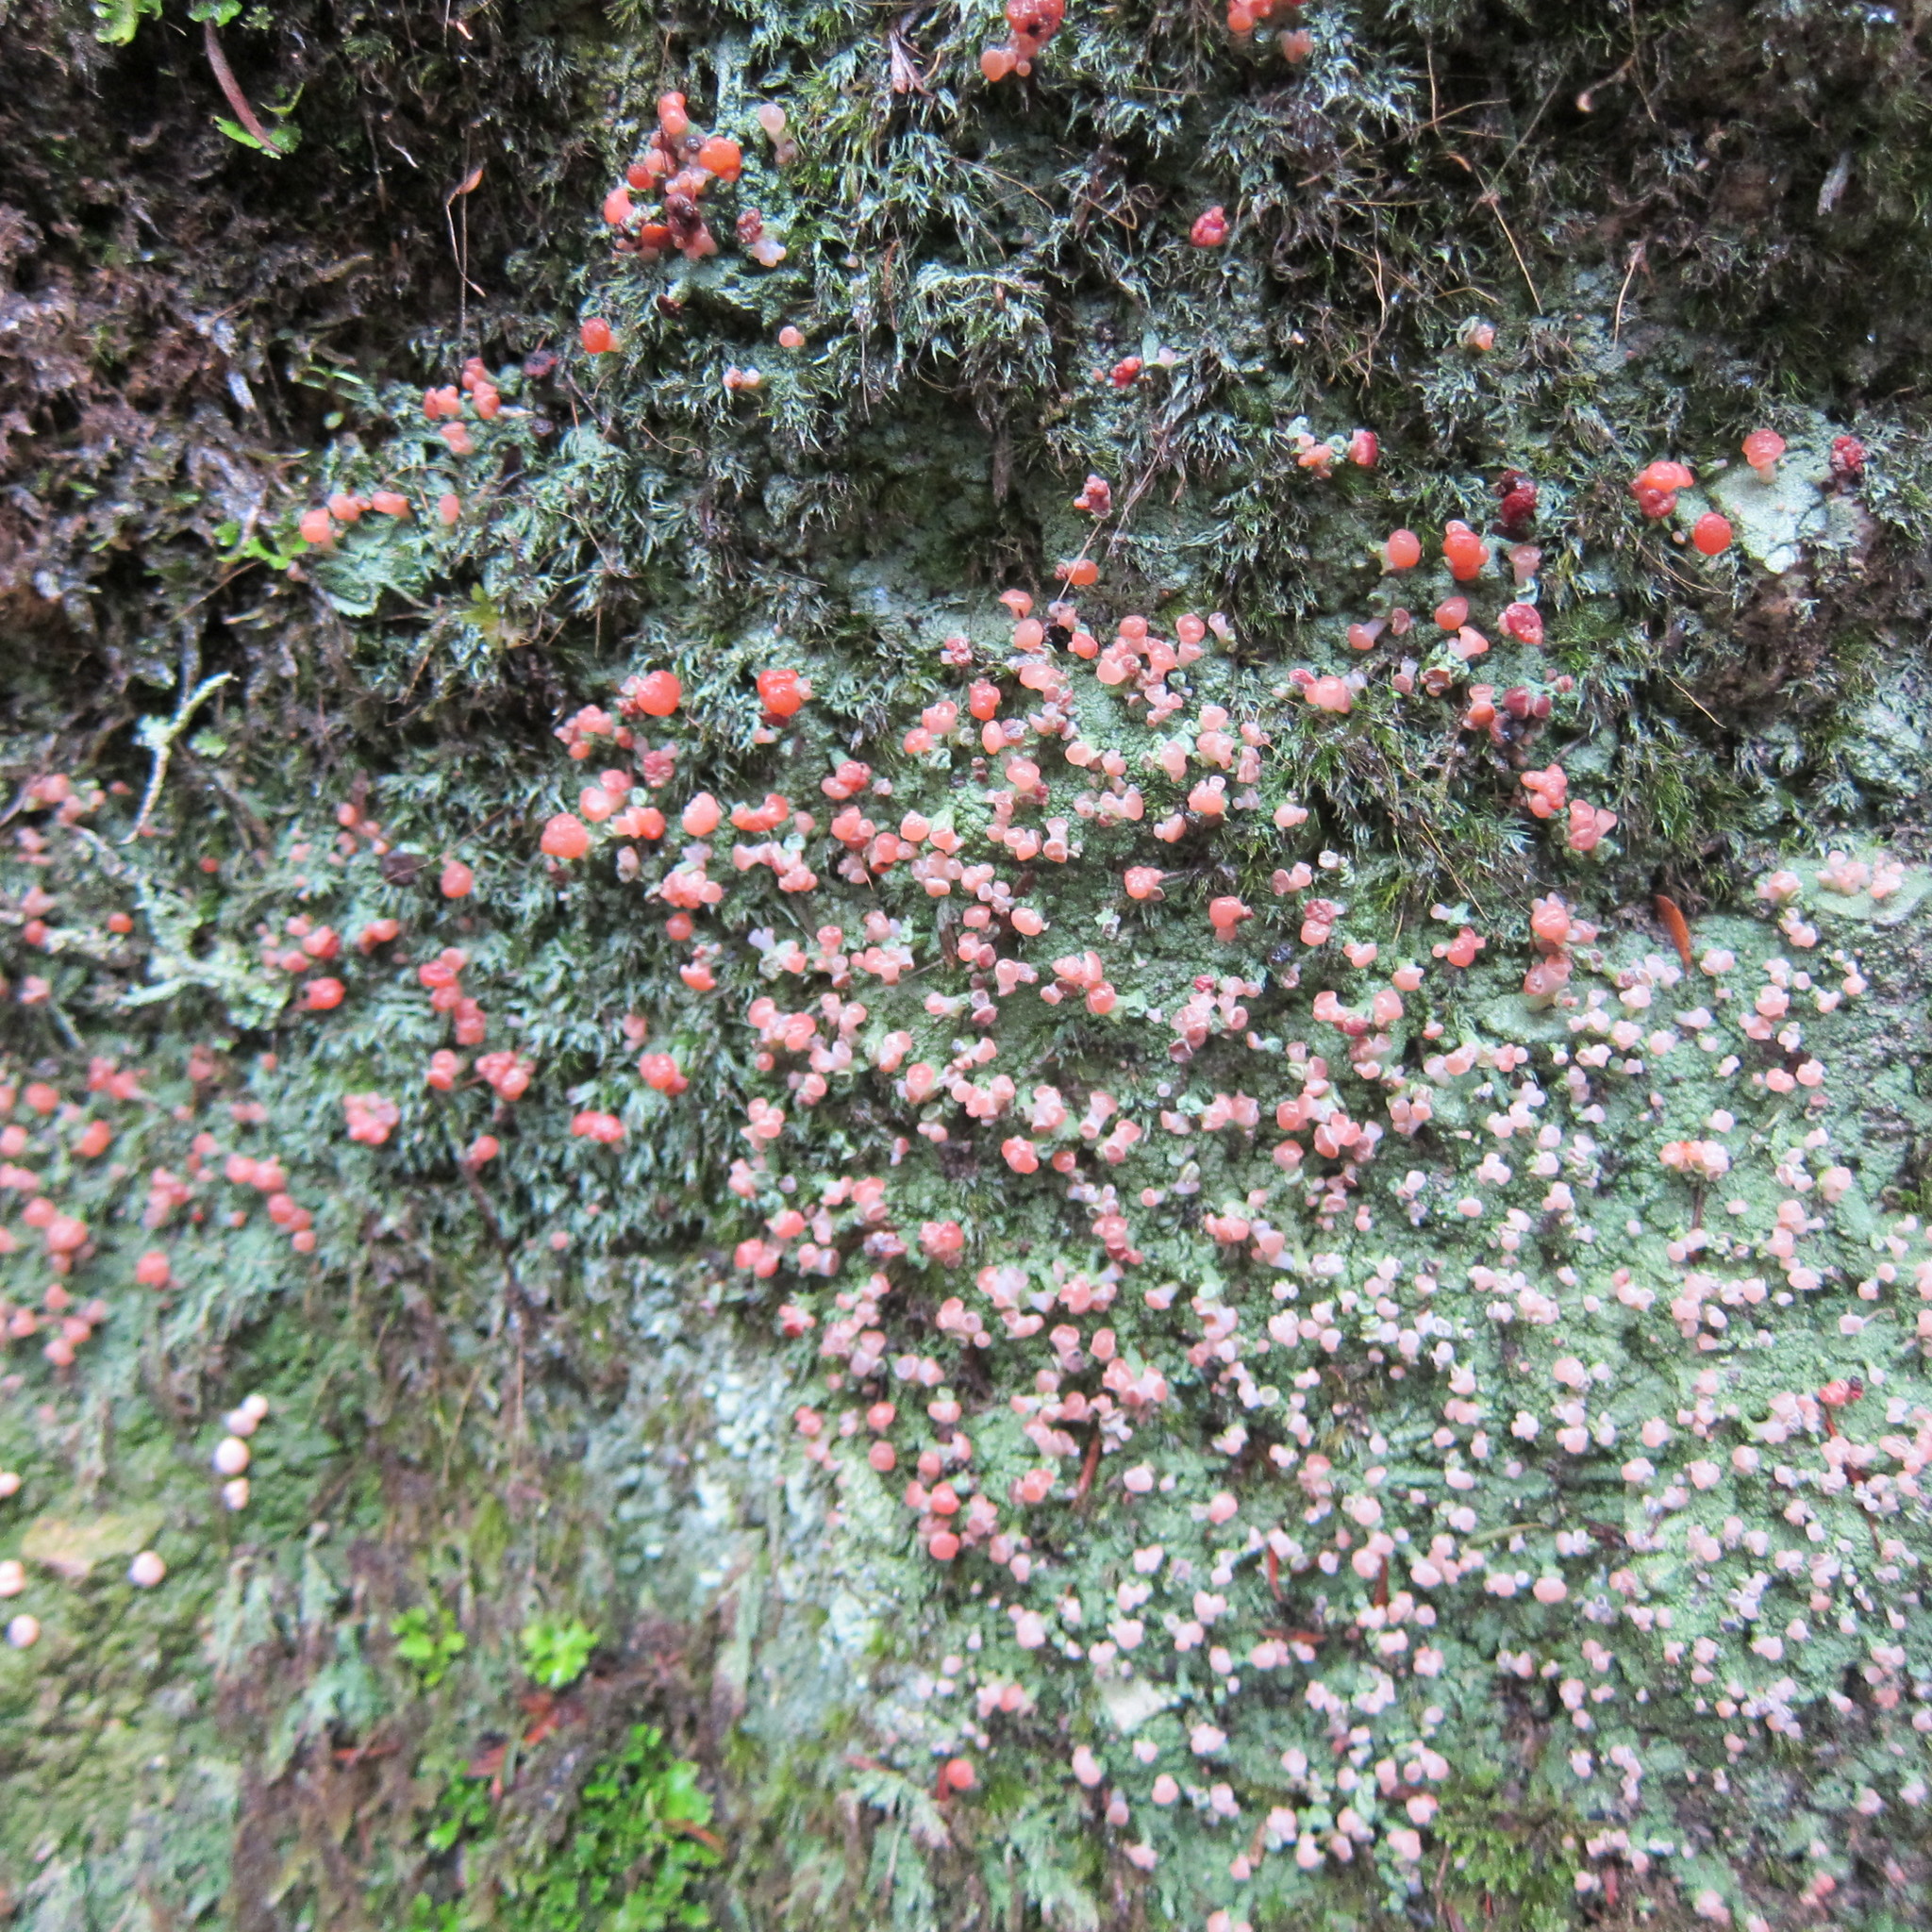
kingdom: Fungi
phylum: Ascomycota
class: Lecanoromycetes
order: Baeomycetales
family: Baeomycetaceae
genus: Baeomyces
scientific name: Baeomyces heteromorphus
